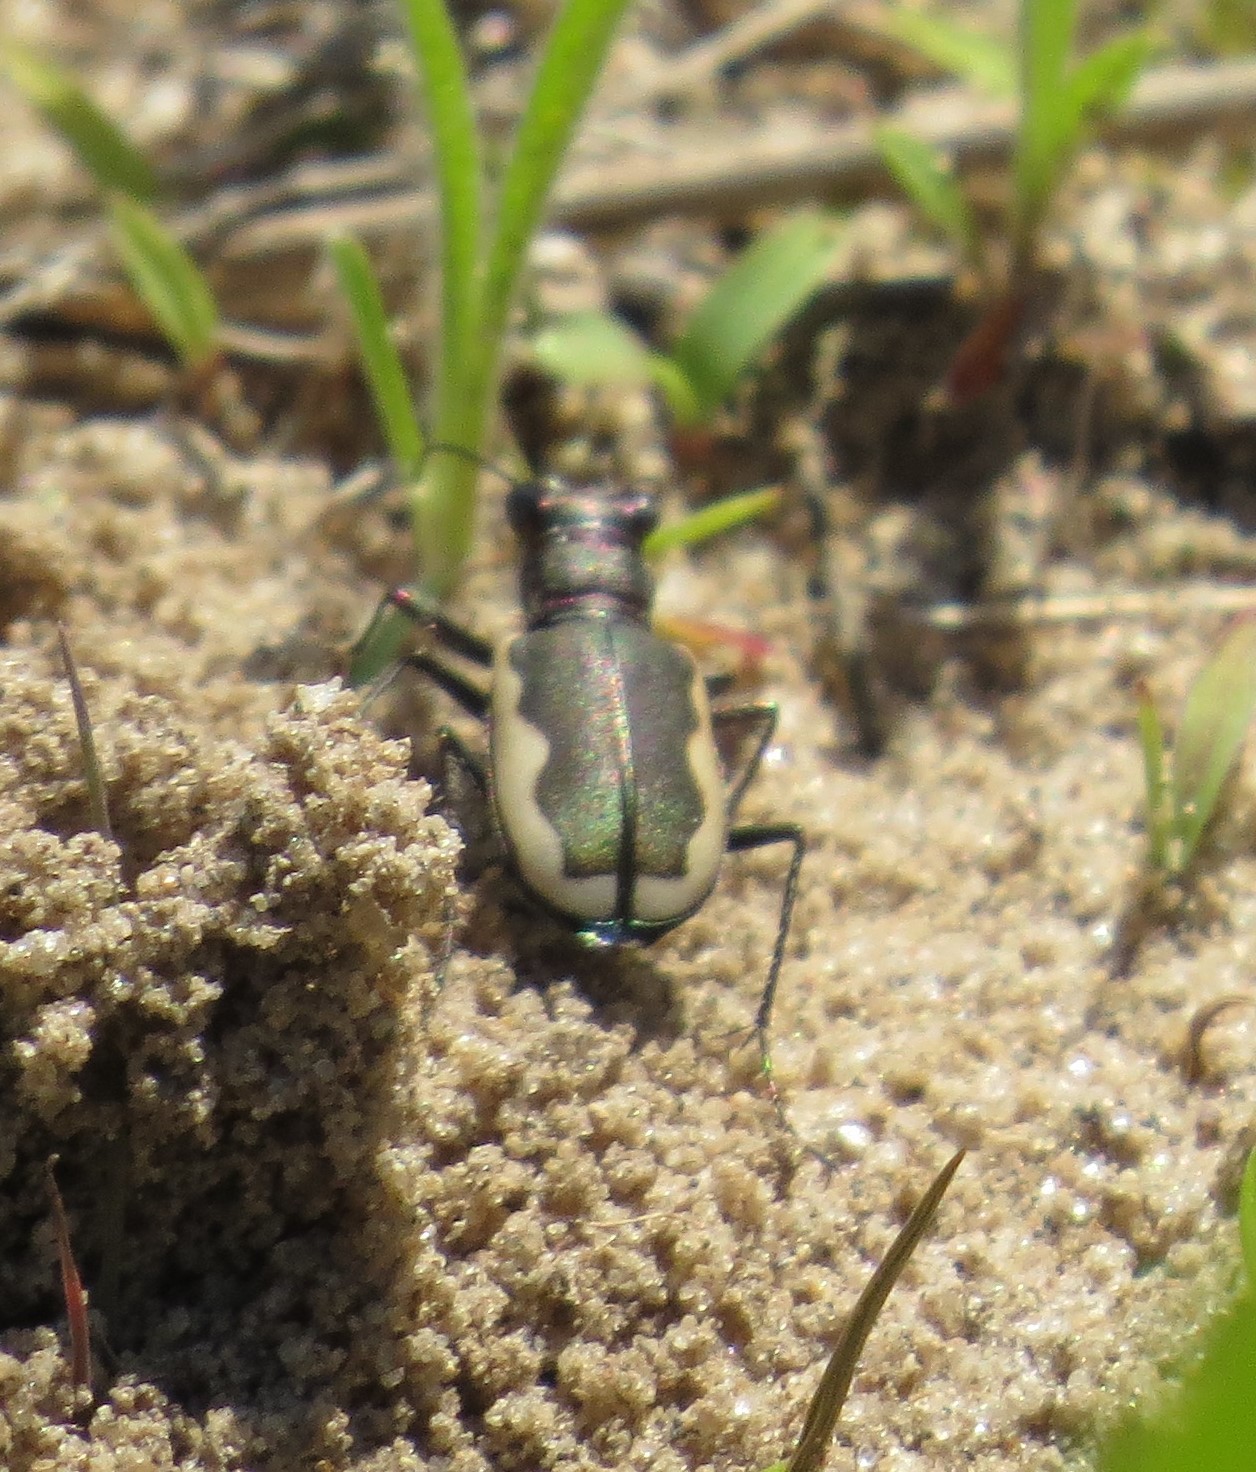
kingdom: Animalia
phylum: Arthropoda
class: Insecta
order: Coleoptera
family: Carabidae
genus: Cicindela
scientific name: Cicindela scutellaris
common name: Festive tiger beetle
